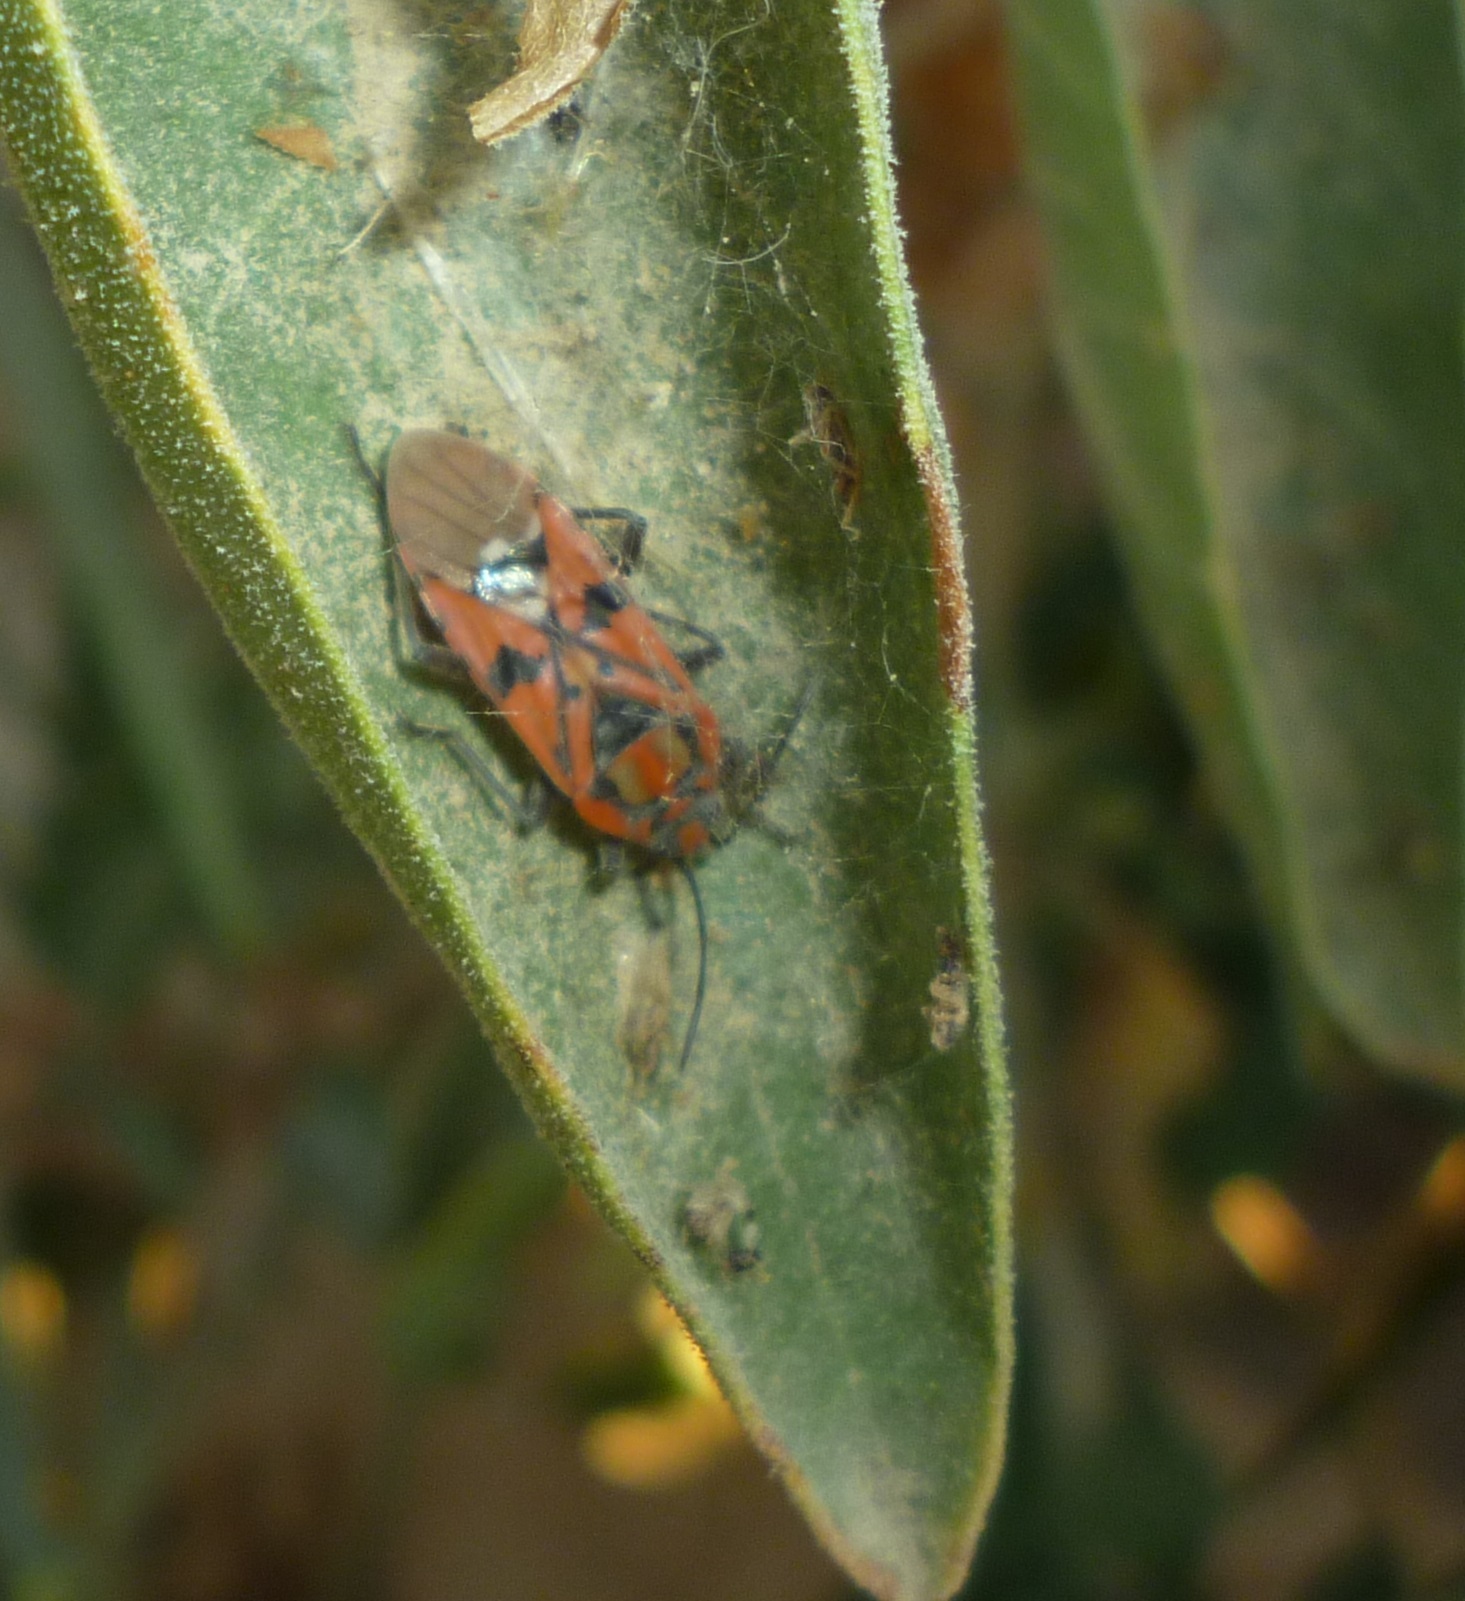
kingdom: Animalia
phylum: Arthropoda
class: Insecta
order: Hemiptera
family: Lygaeidae
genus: Spilostethus
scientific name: Spilostethus pandurus
